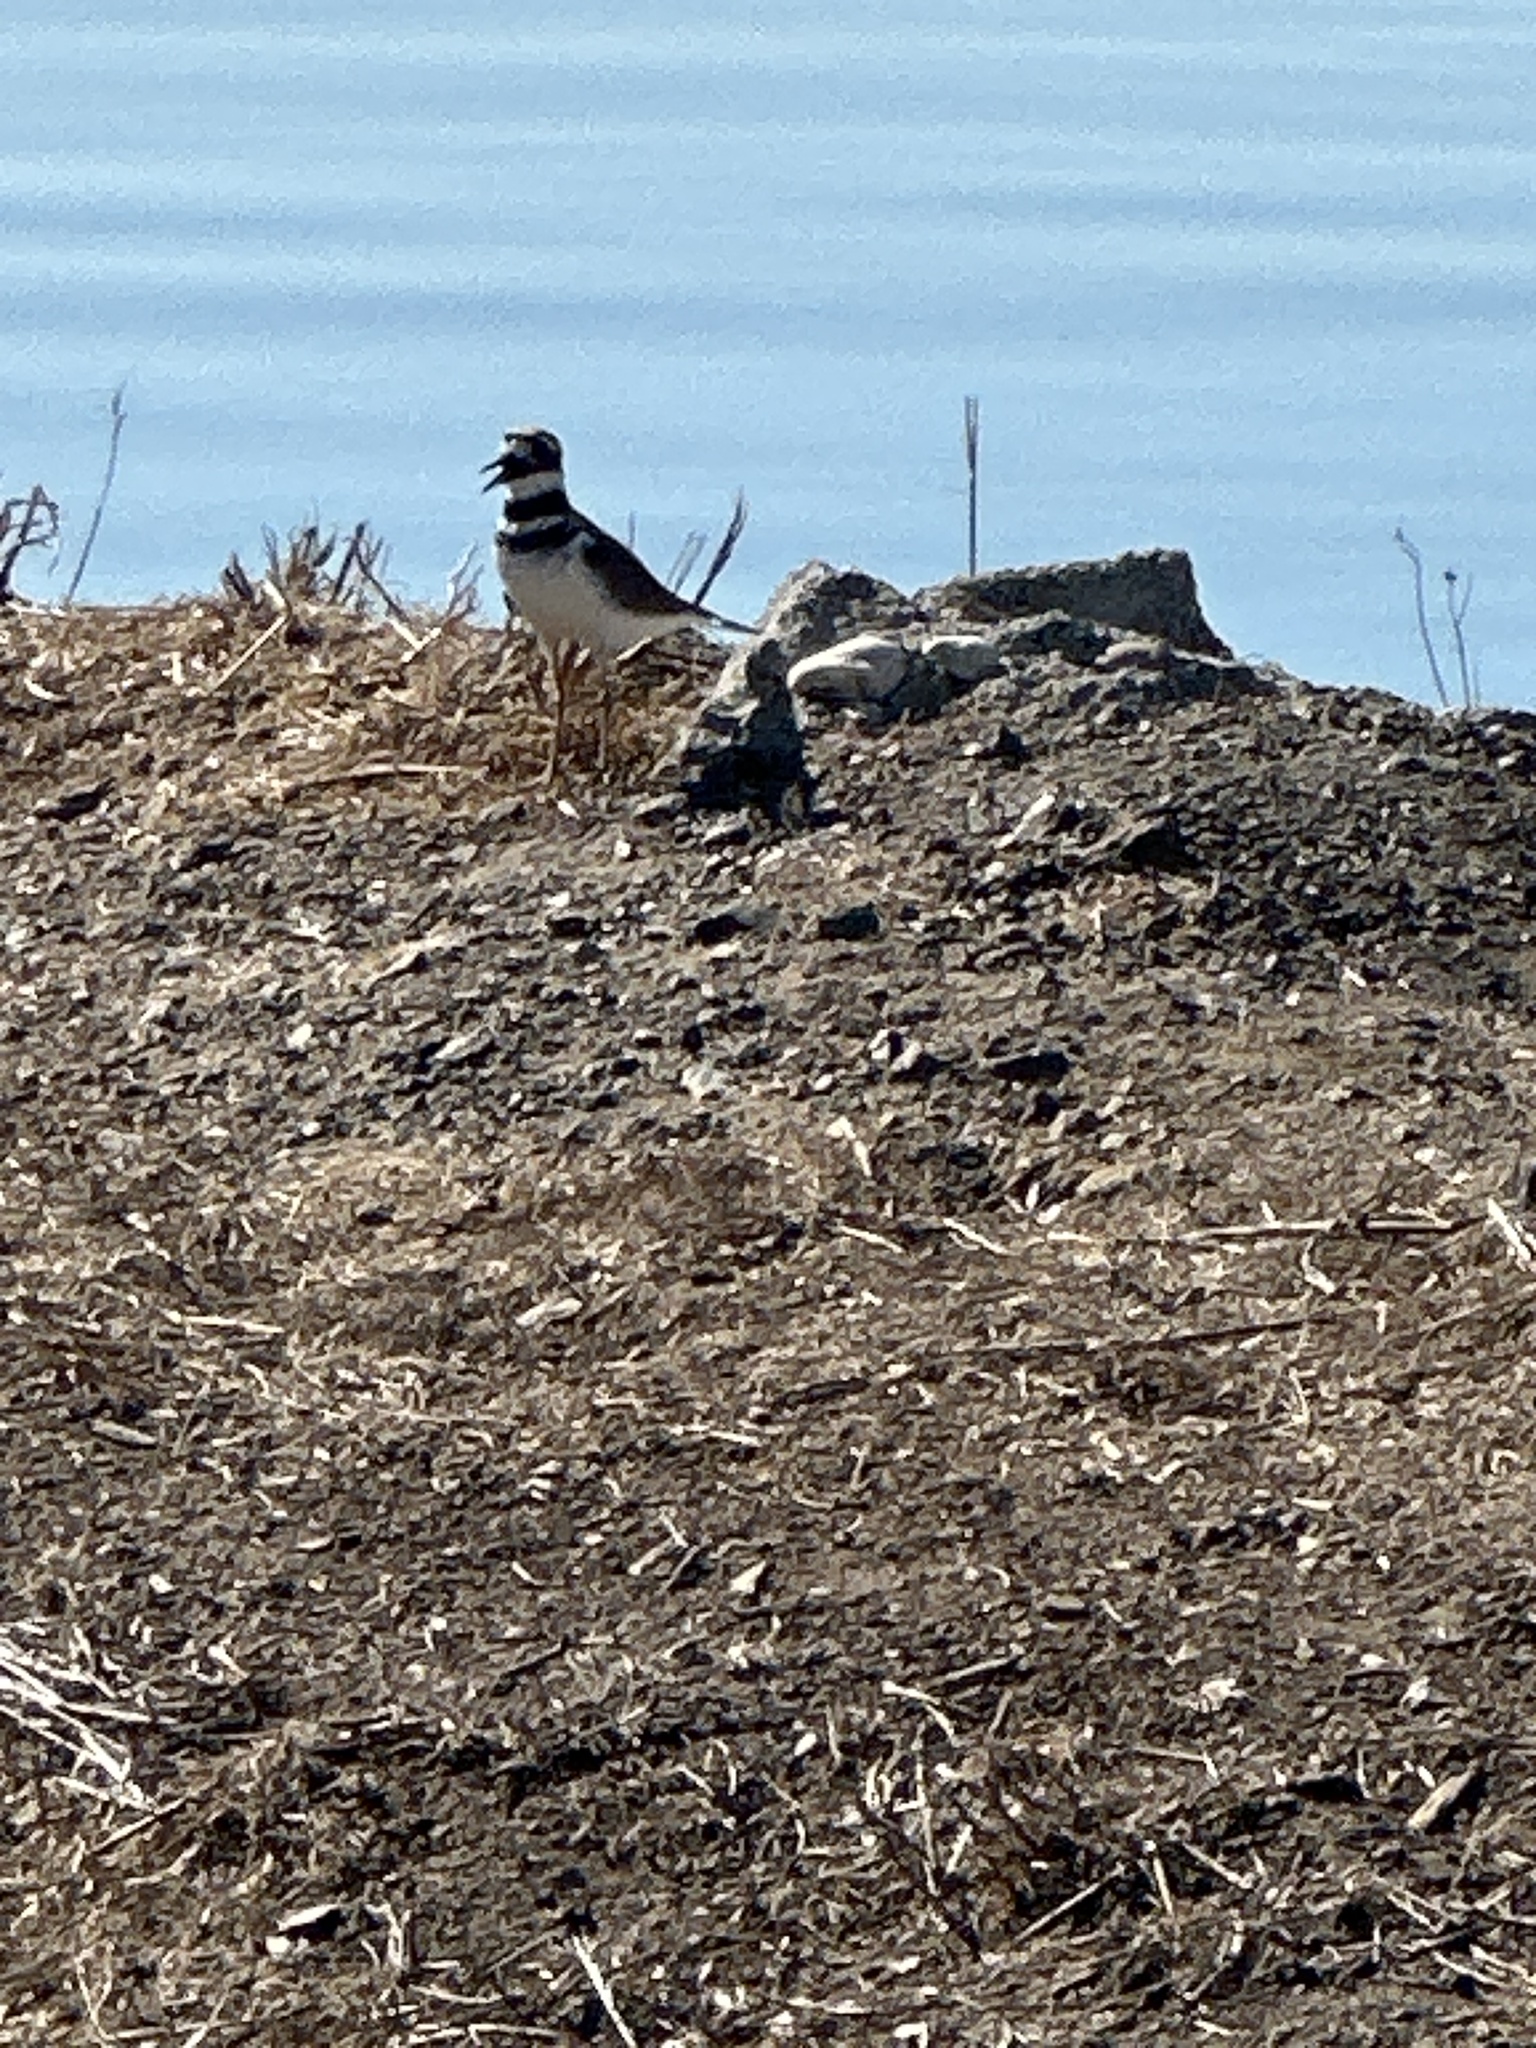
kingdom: Animalia
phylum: Chordata
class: Aves
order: Charadriiformes
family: Charadriidae
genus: Charadrius
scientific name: Charadrius vociferus
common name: Killdeer
